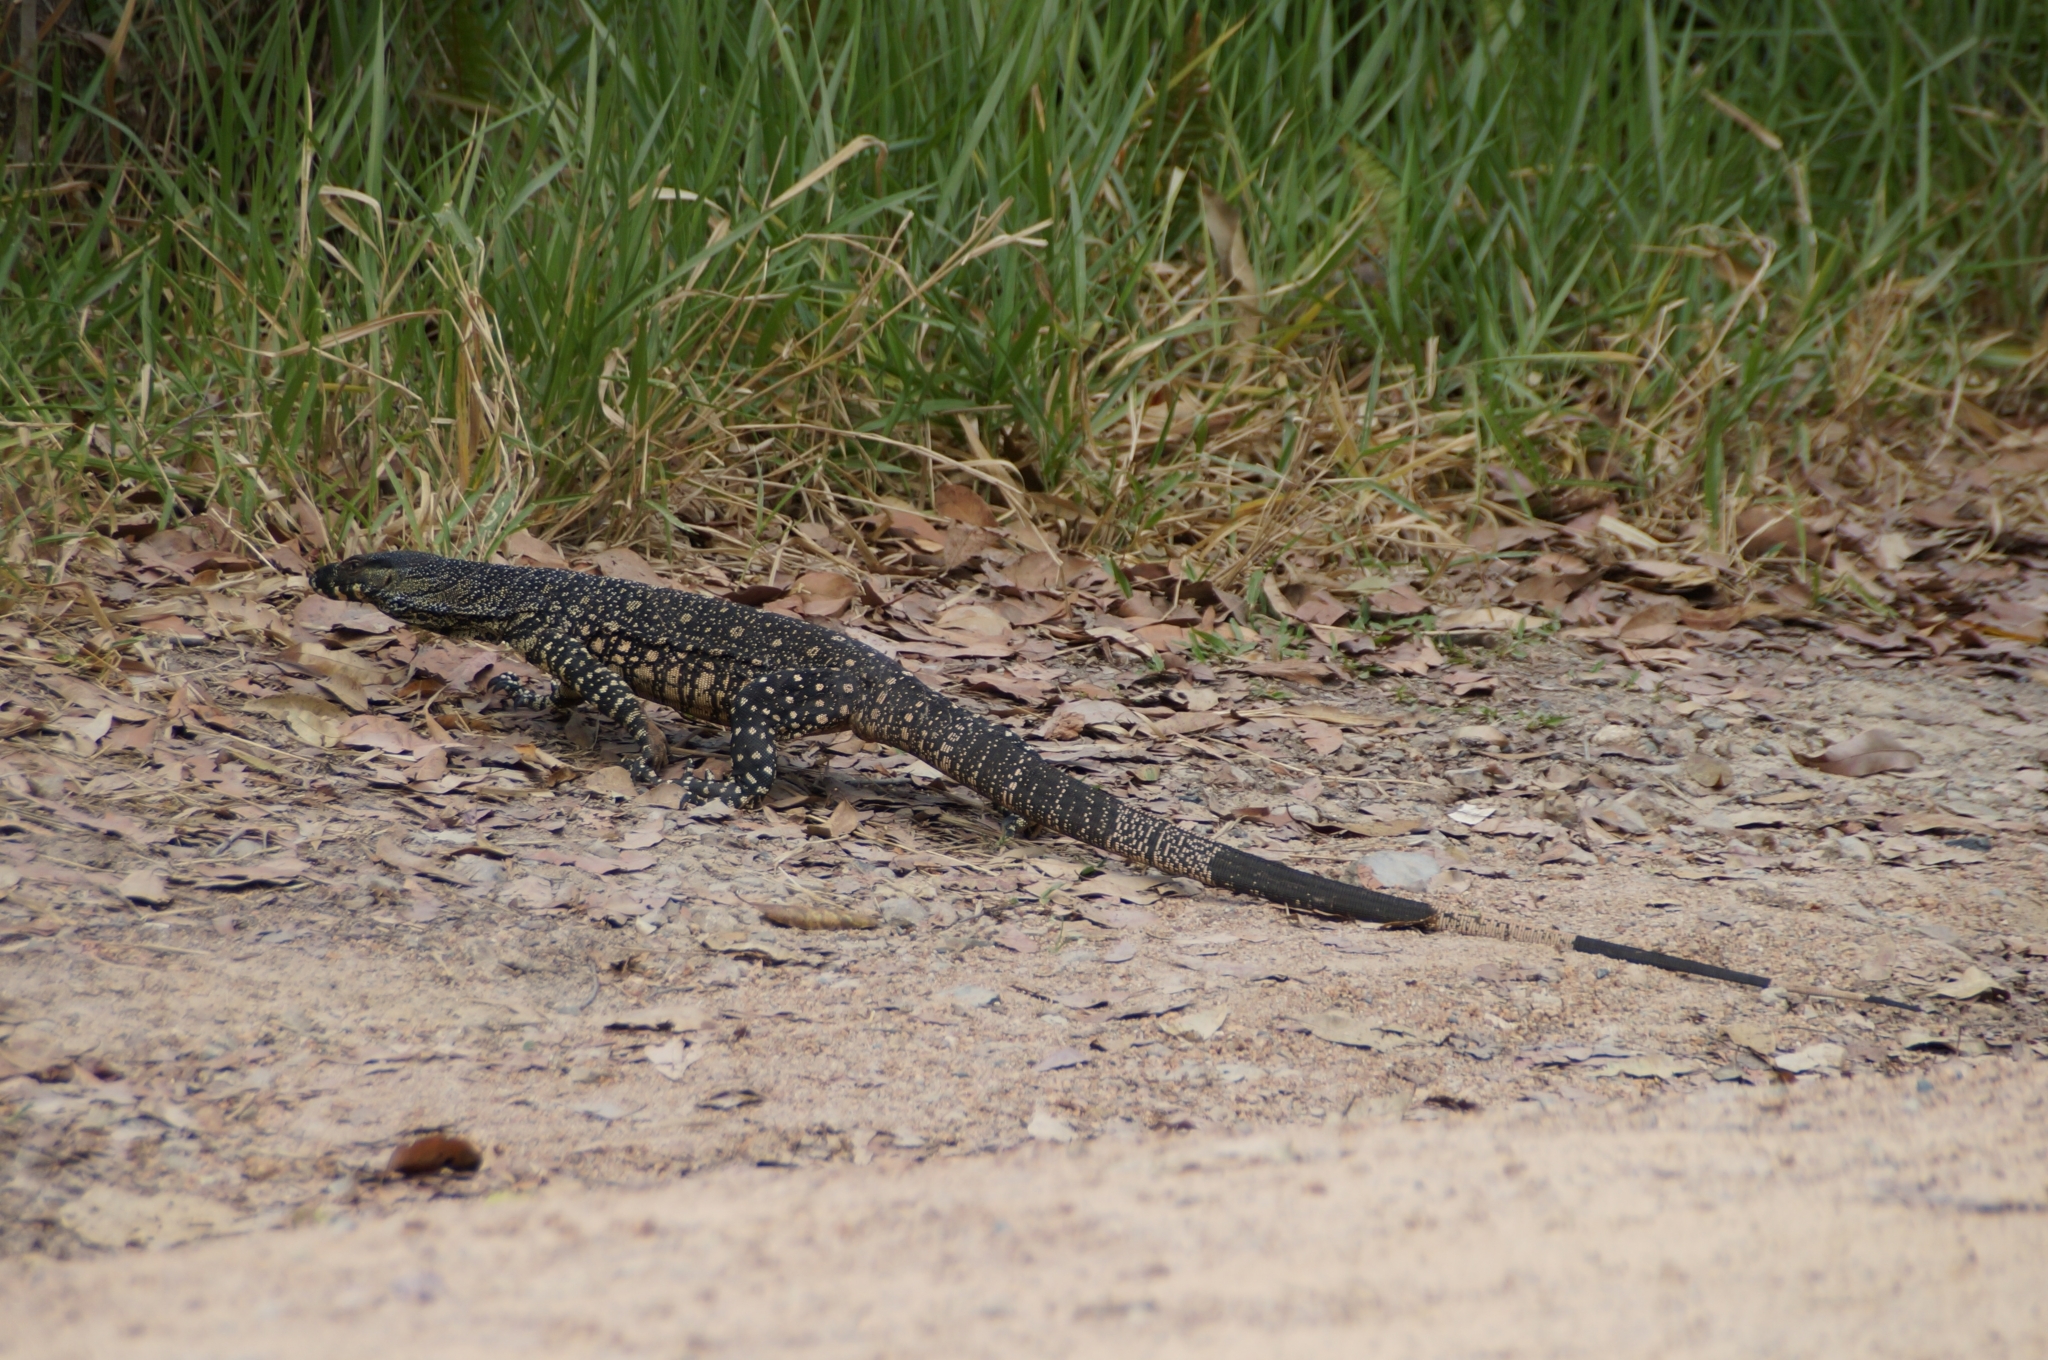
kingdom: Animalia
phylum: Chordata
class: Squamata
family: Varanidae
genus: Varanus
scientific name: Varanus varius
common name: Lace monitor
